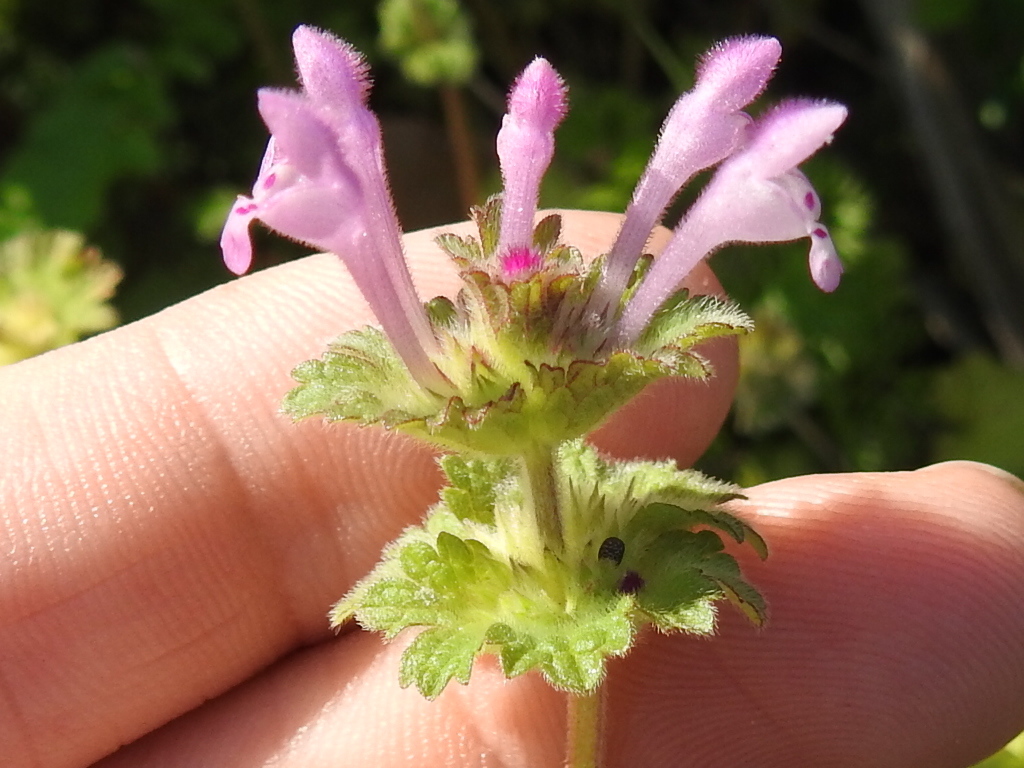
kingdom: Plantae
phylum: Tracheophyta
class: Magnoliopsida
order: Lamiales
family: Lamiaceae
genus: Lamium
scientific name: Lamium amplexicaule
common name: Henbit dead-nettle
